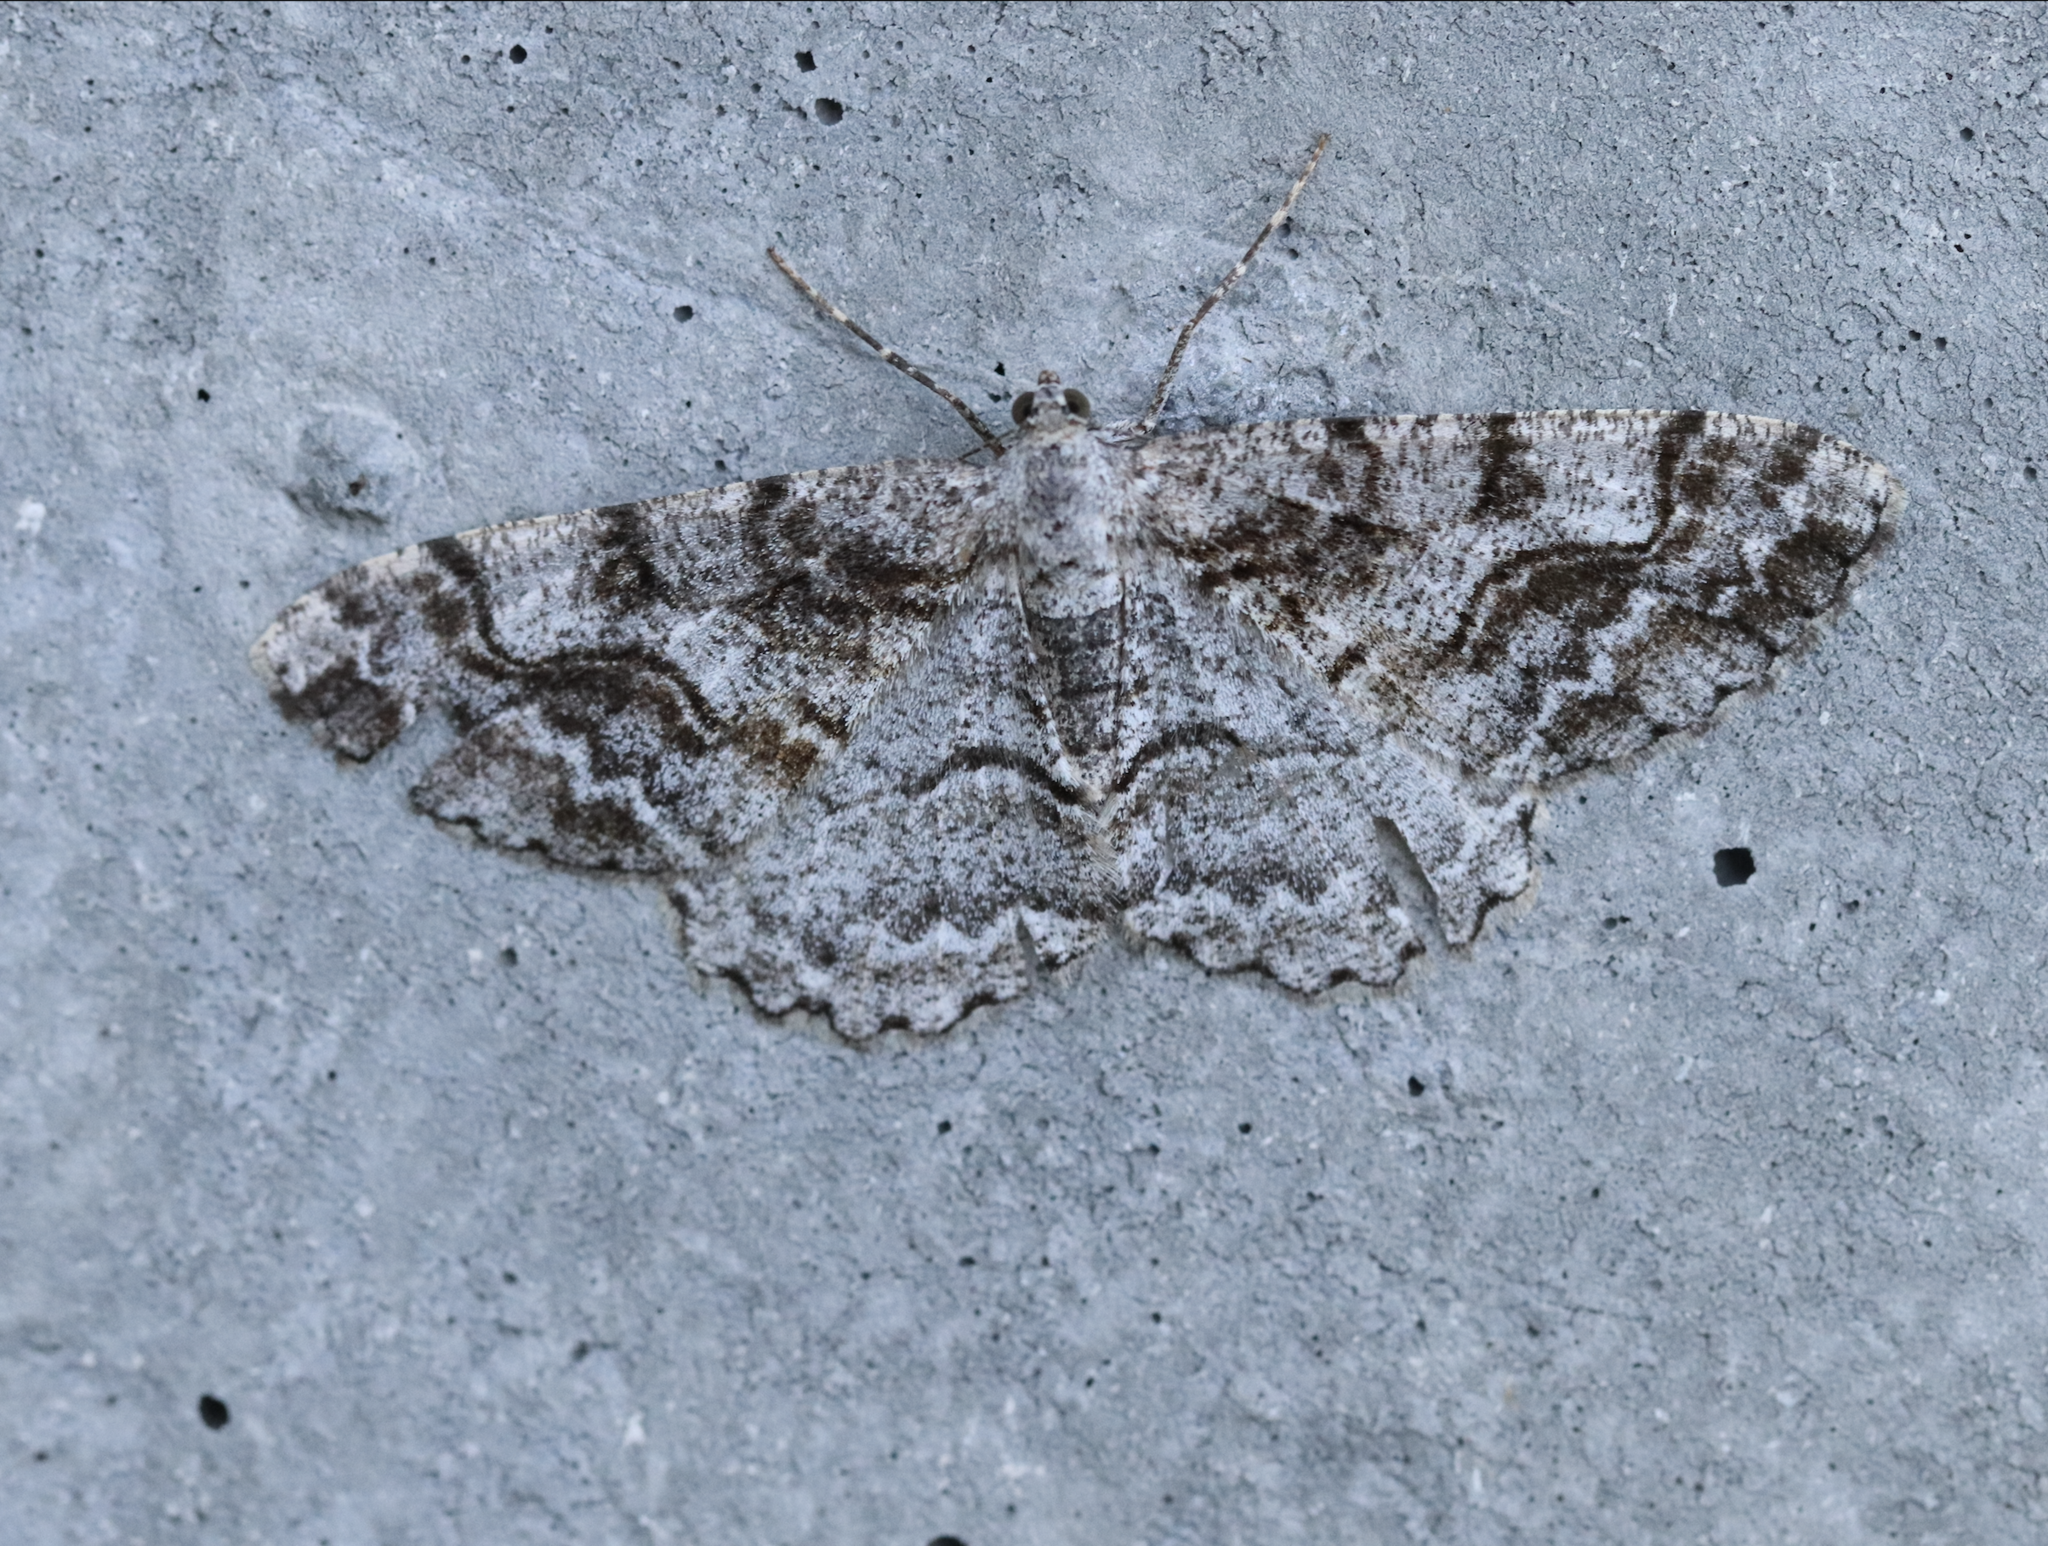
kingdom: Animalia
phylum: Arthropoda
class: Insecta
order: Lepidoptera
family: Geometridae
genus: Alcis
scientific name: Alcis repandata
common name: Mottled beauty
